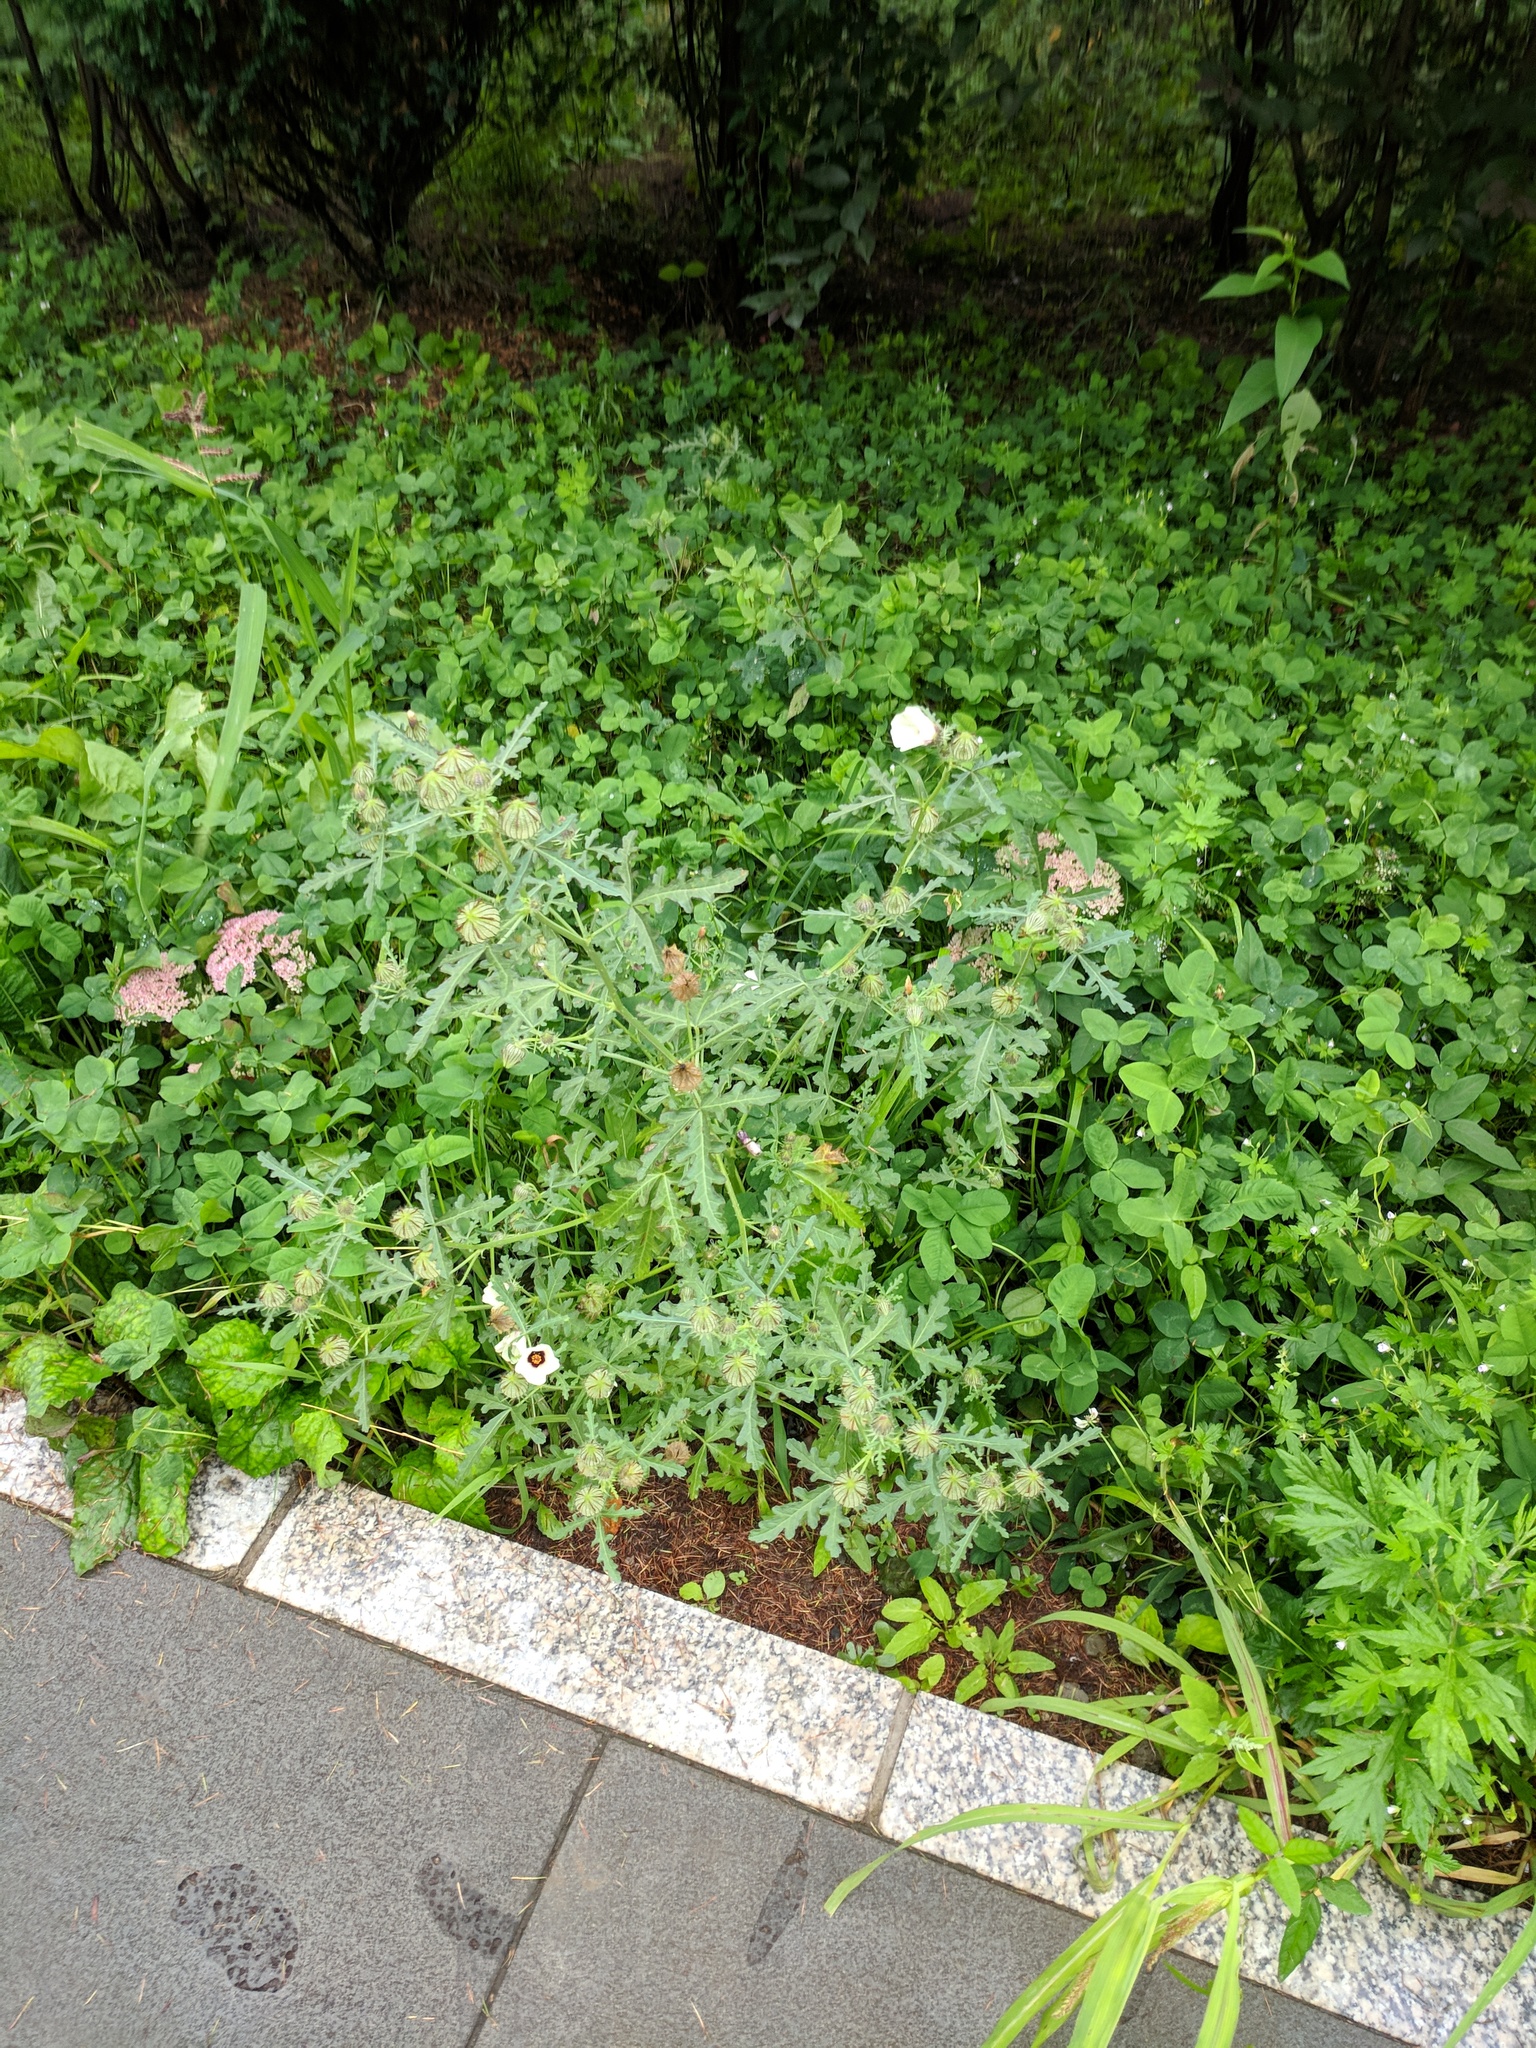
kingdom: Plantae
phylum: Tracheophyta
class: Magnoliopsida
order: Malvales
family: Malvaceae
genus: Hibiscus
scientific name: Hibiscus trionum
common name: Bladder ketmia
